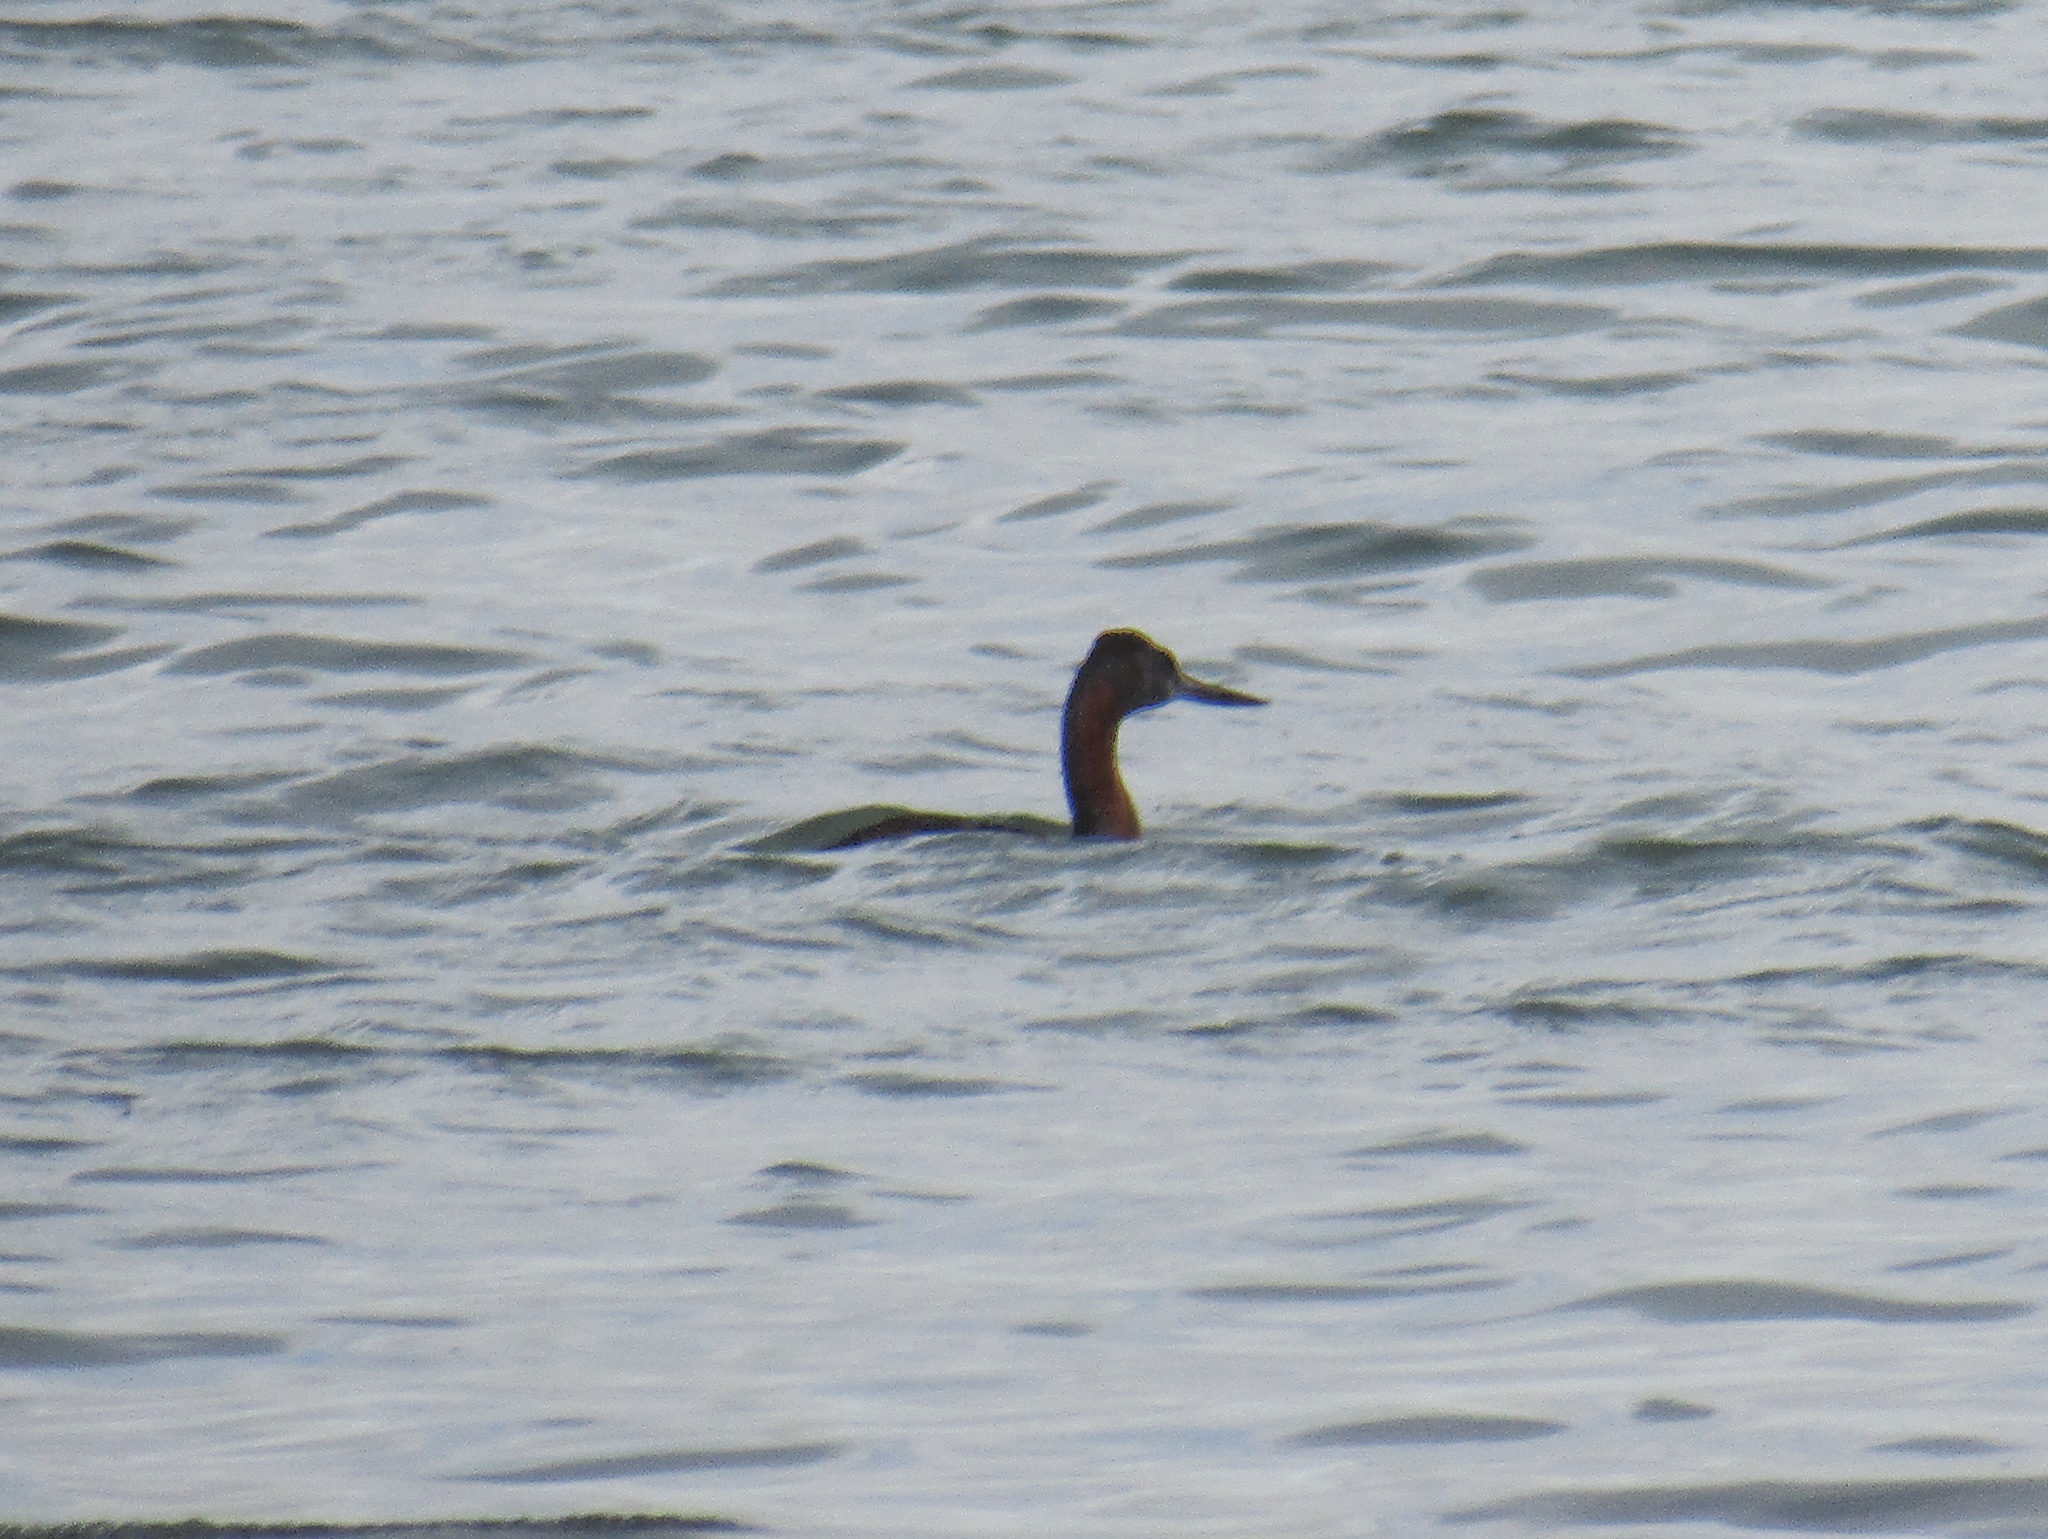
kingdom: Animalia
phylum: Chordata
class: Aves
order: Podicipediformes
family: Podicipedidae
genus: Podiceps
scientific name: Podiceps major
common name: Great grebe
